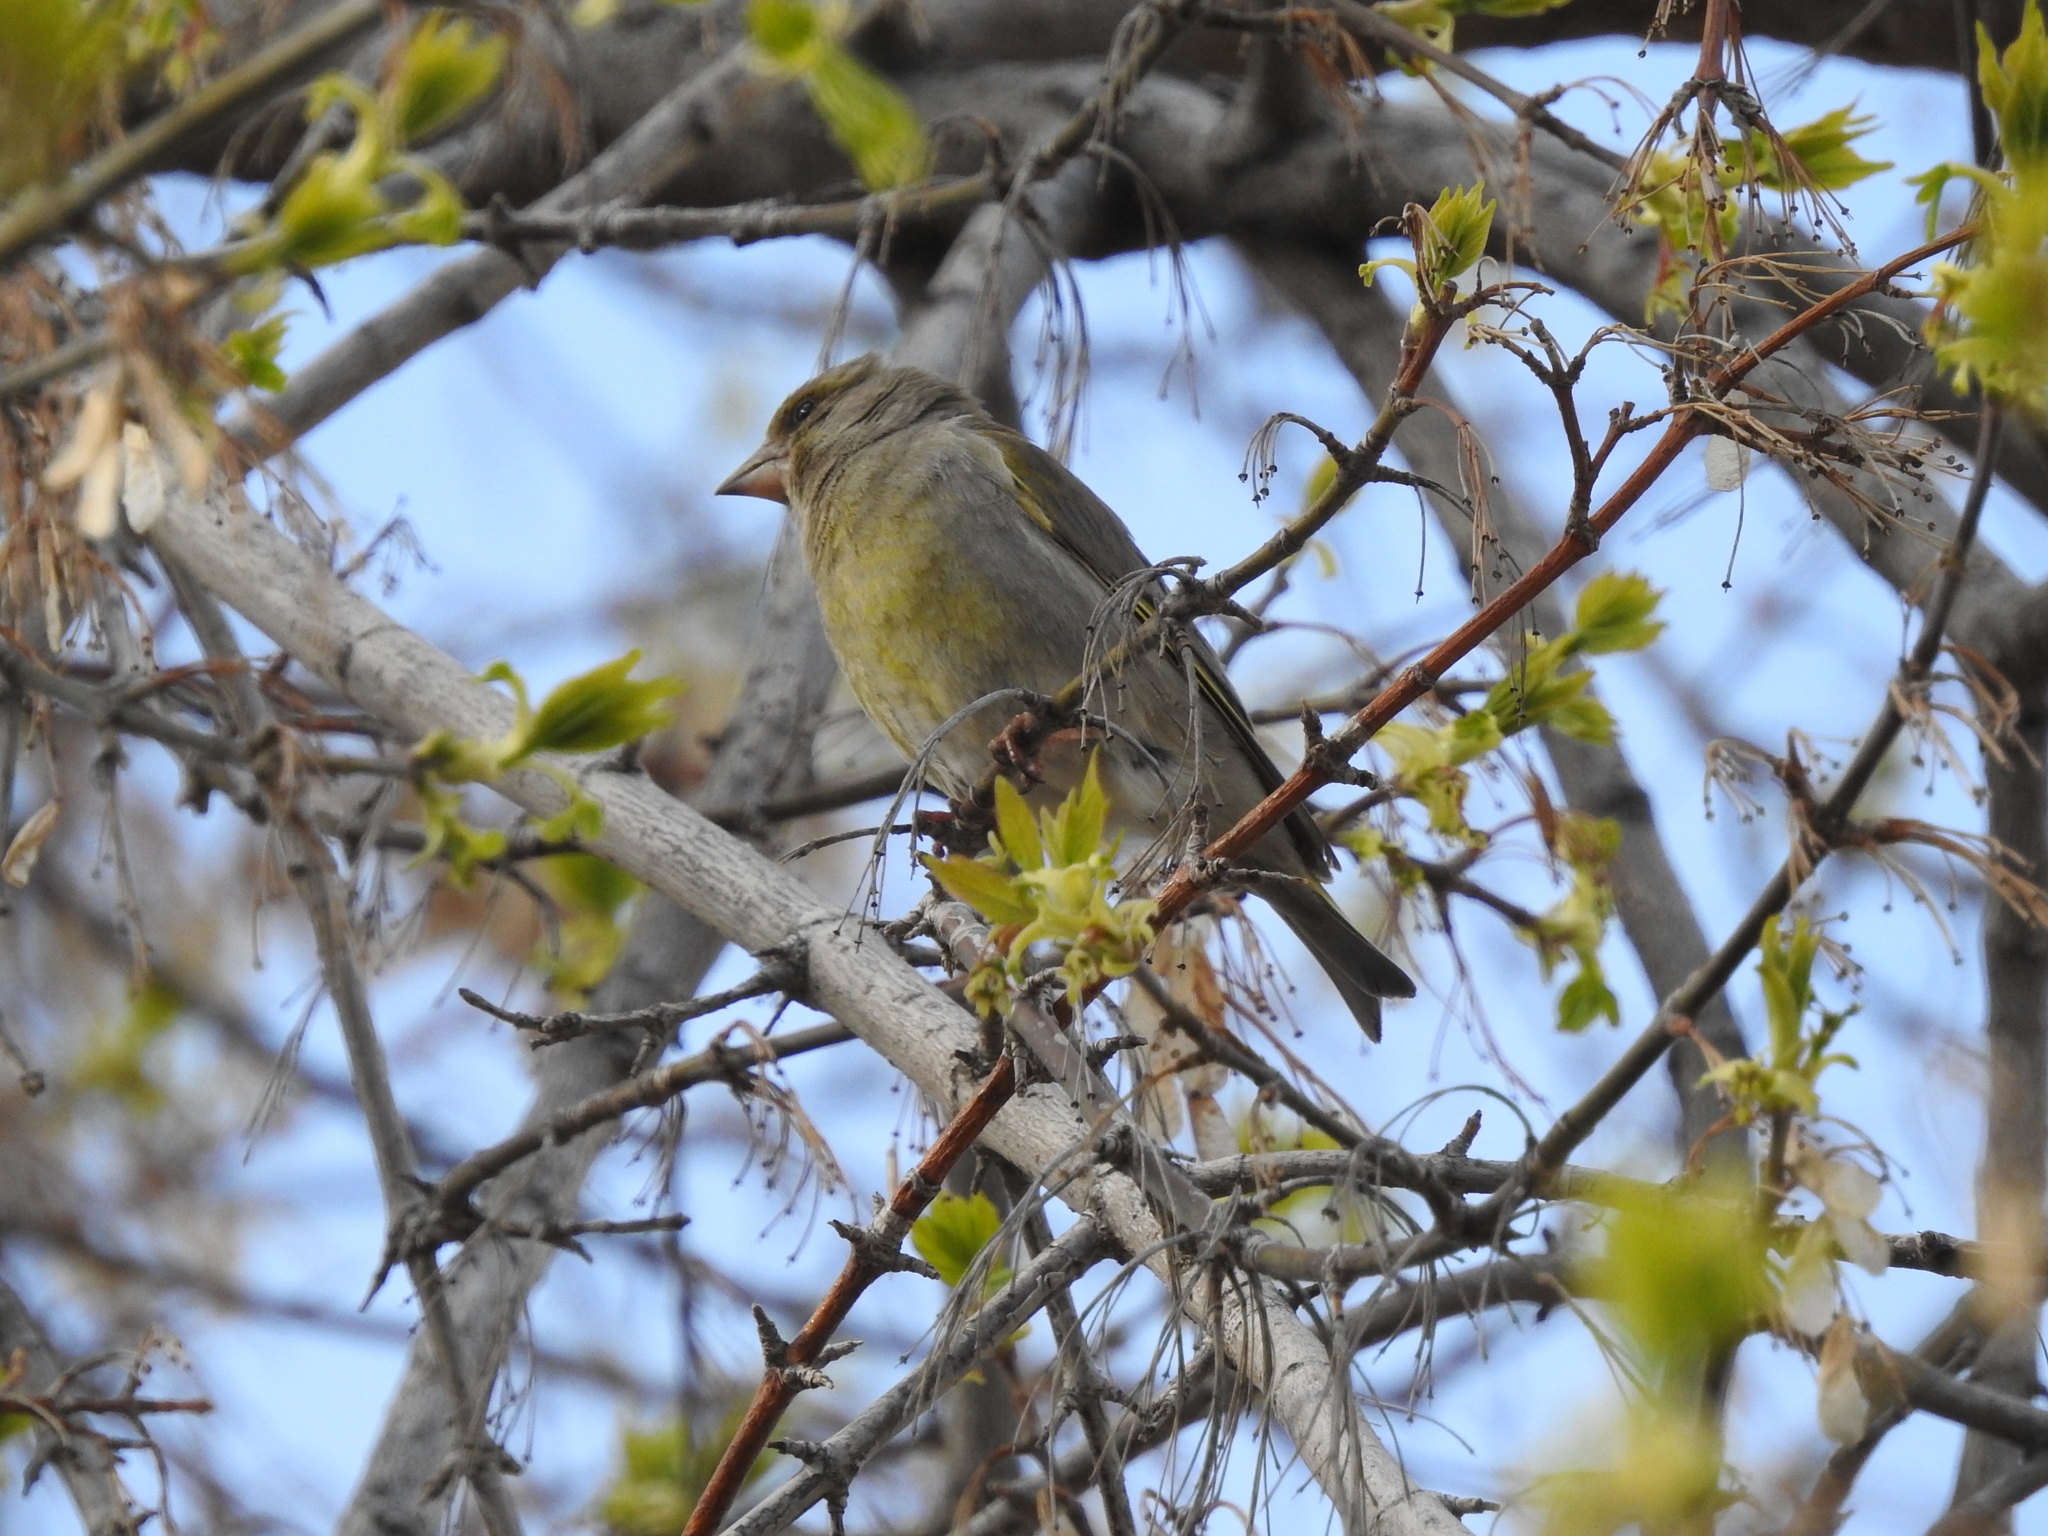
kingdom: Plantae
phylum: Tracheophyta
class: Liliopsida
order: Poales
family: Poaceae
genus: Chloris
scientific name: Chloris chloris
